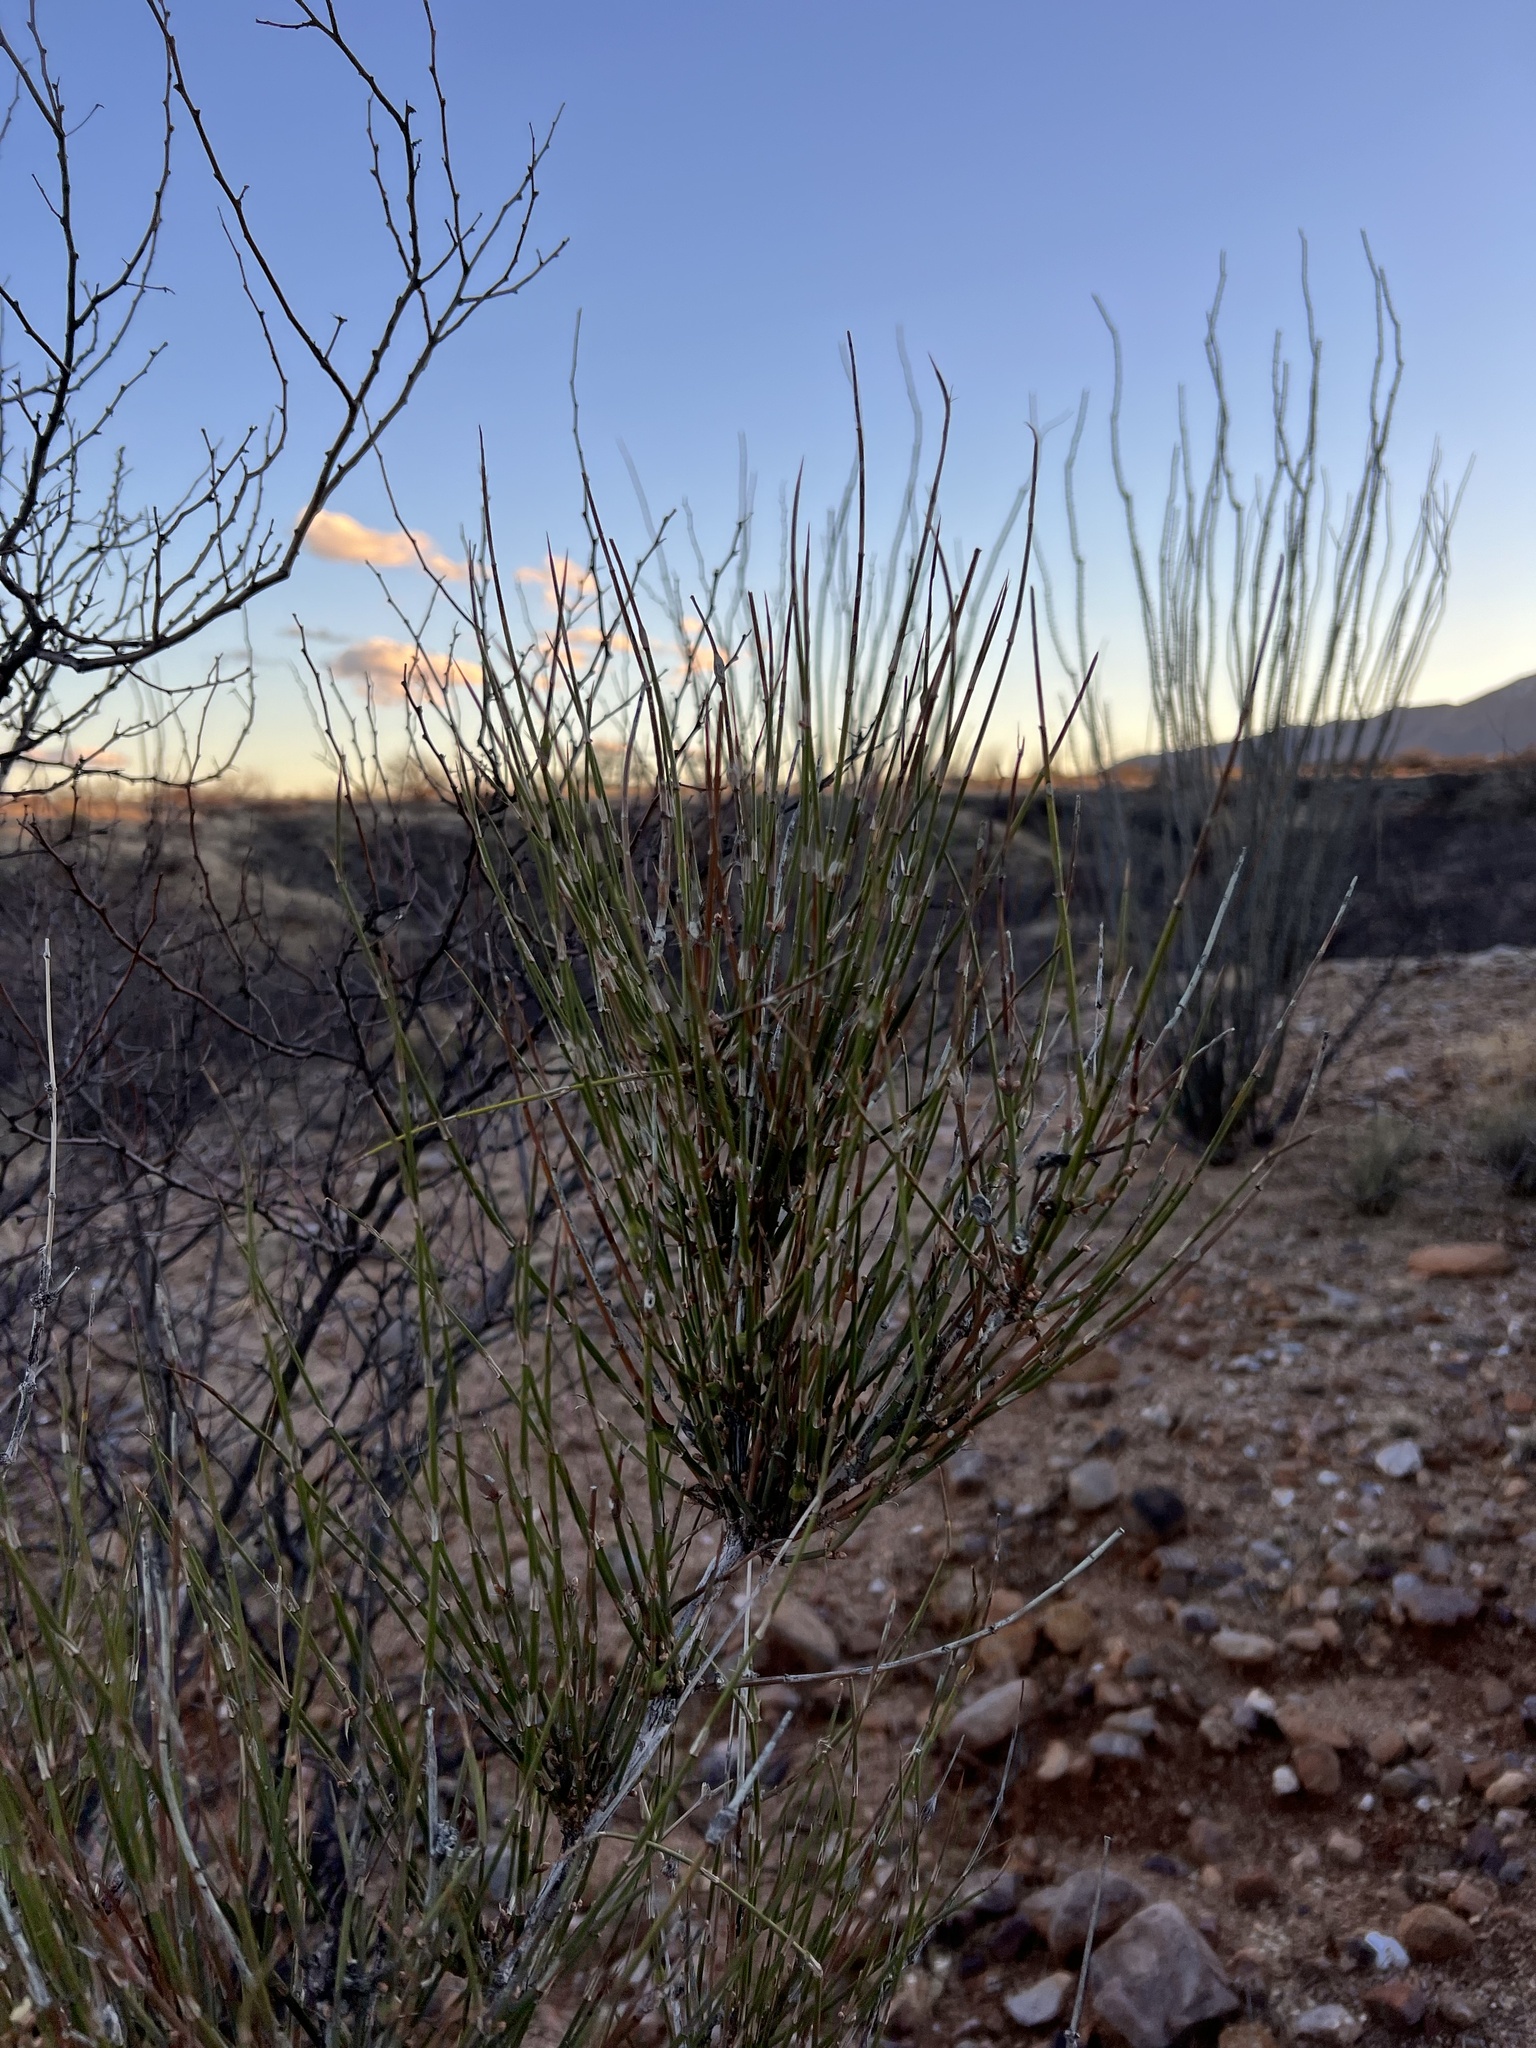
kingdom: Plantae
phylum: Tracheophyta
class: Gnetopsida
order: Ephedrales
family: Ephedraceae
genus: Ephedra
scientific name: Ephedra trifurca
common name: Mexican-tea
